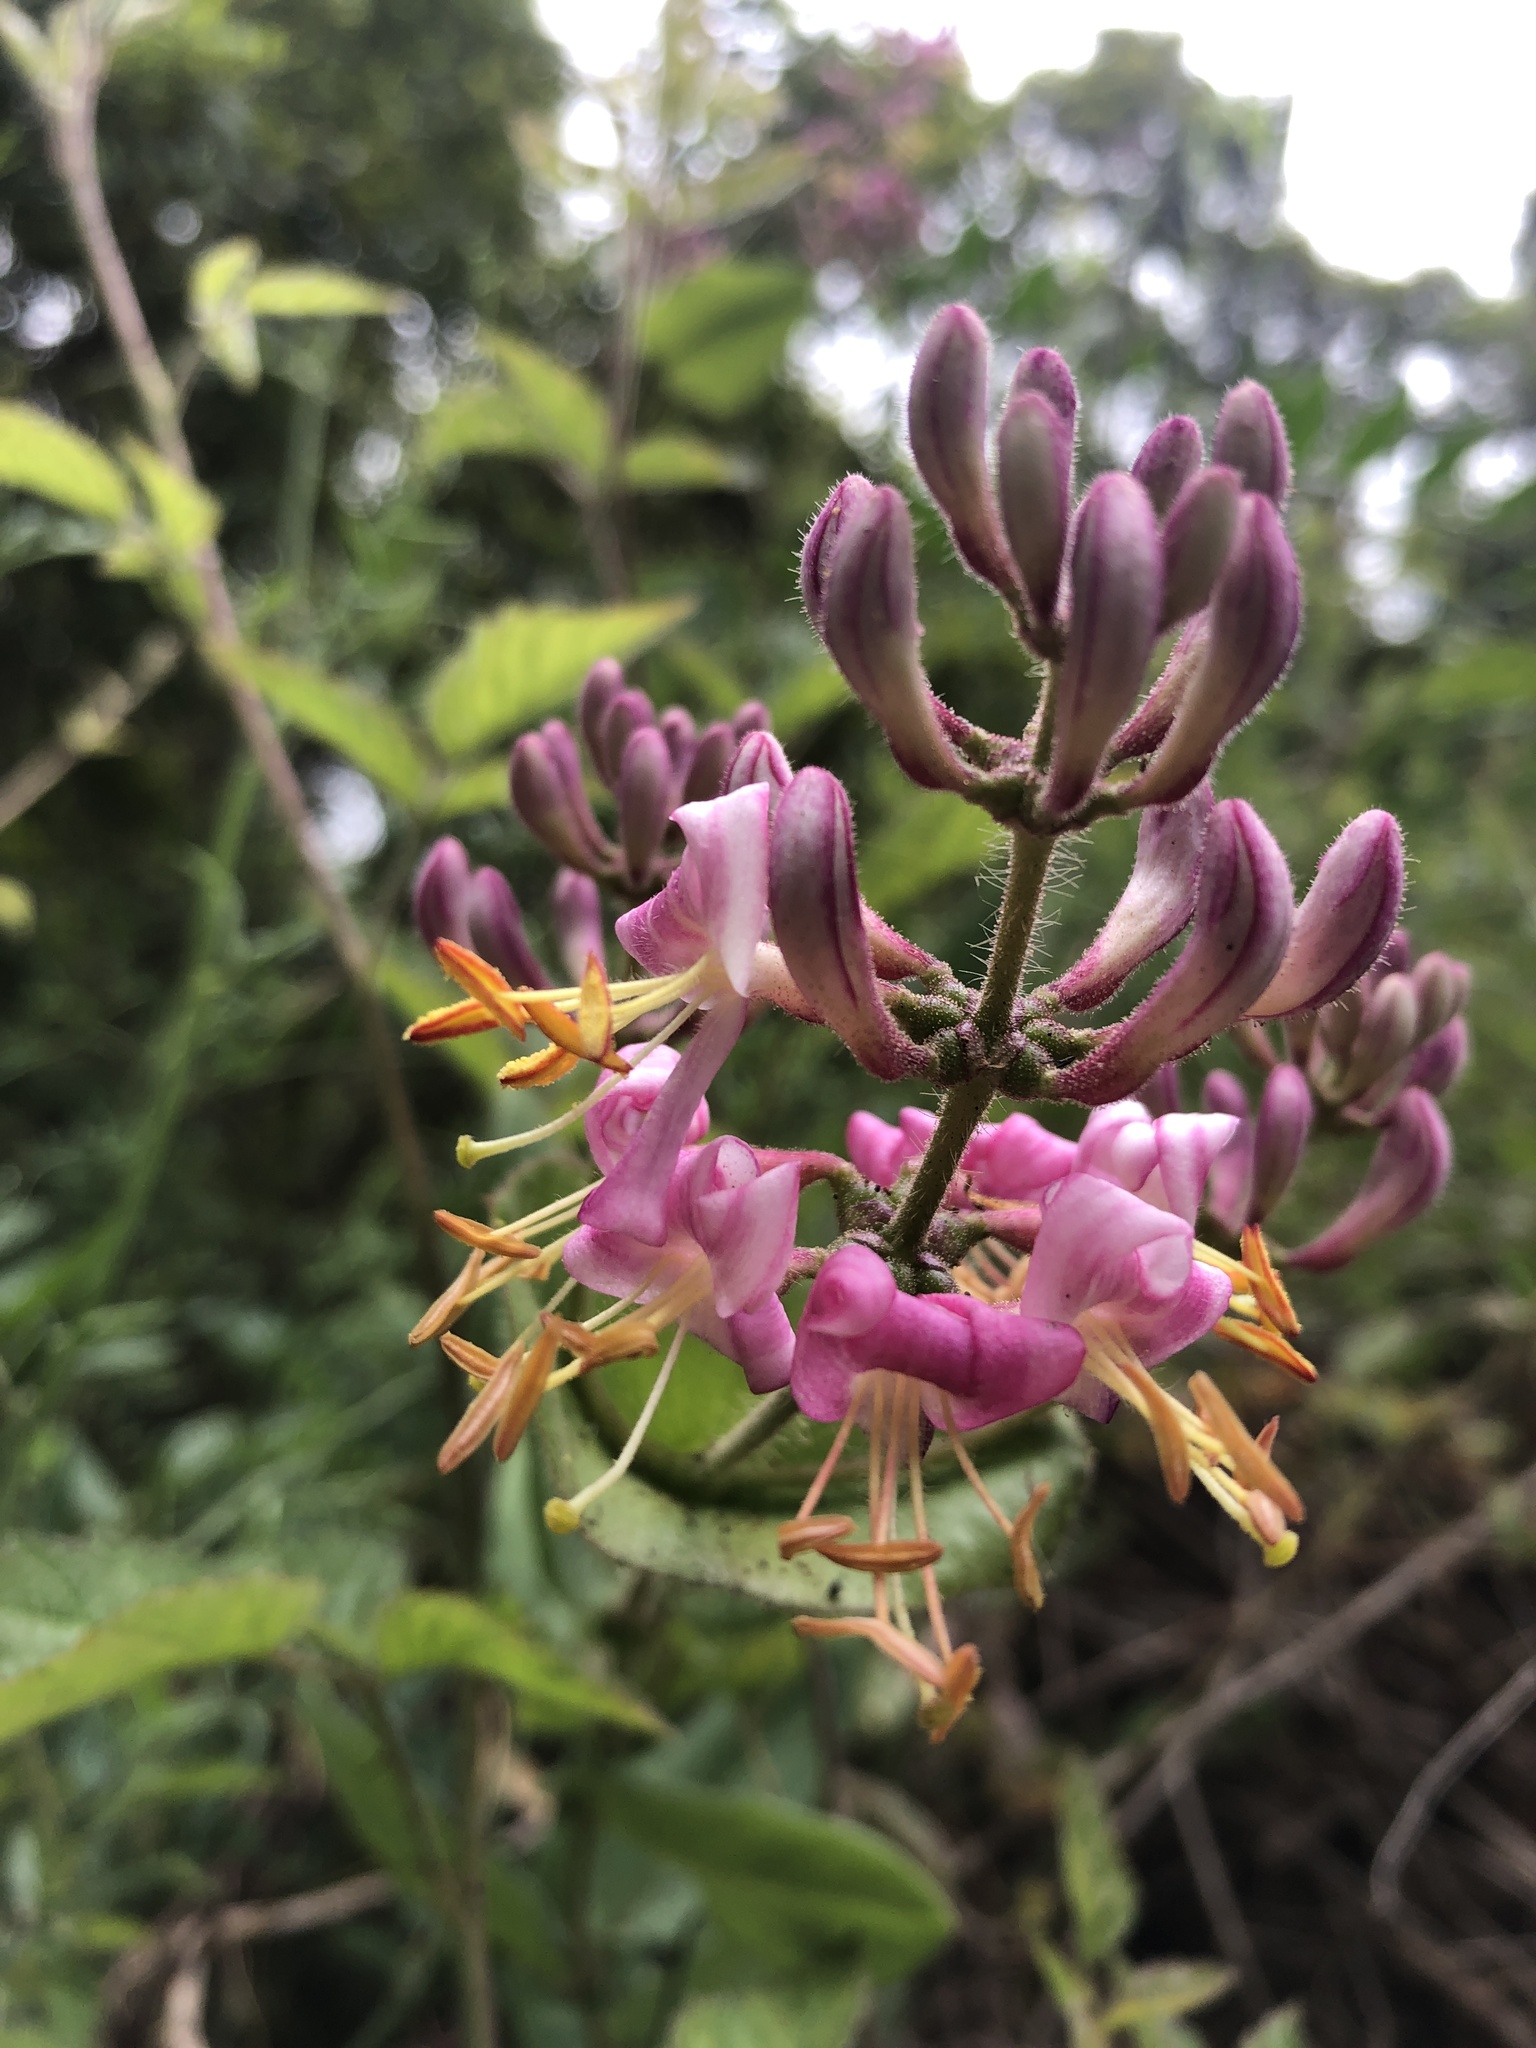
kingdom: Plantae
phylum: Tracheophyta
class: Magnoliopsida
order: Dipsacales
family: Caprifoliaceae
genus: Lonicera
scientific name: Lonicera hispidula
